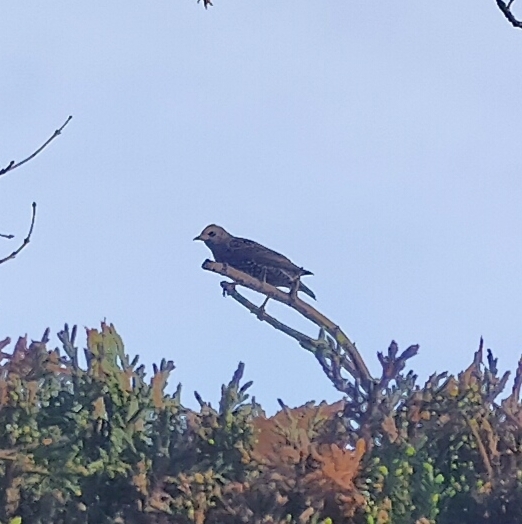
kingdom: Animalia
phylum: Chordata
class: Aves
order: Passeriformes
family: Sturnidae
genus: Sturnus
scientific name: Sturnus vulgaris
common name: Common starling
